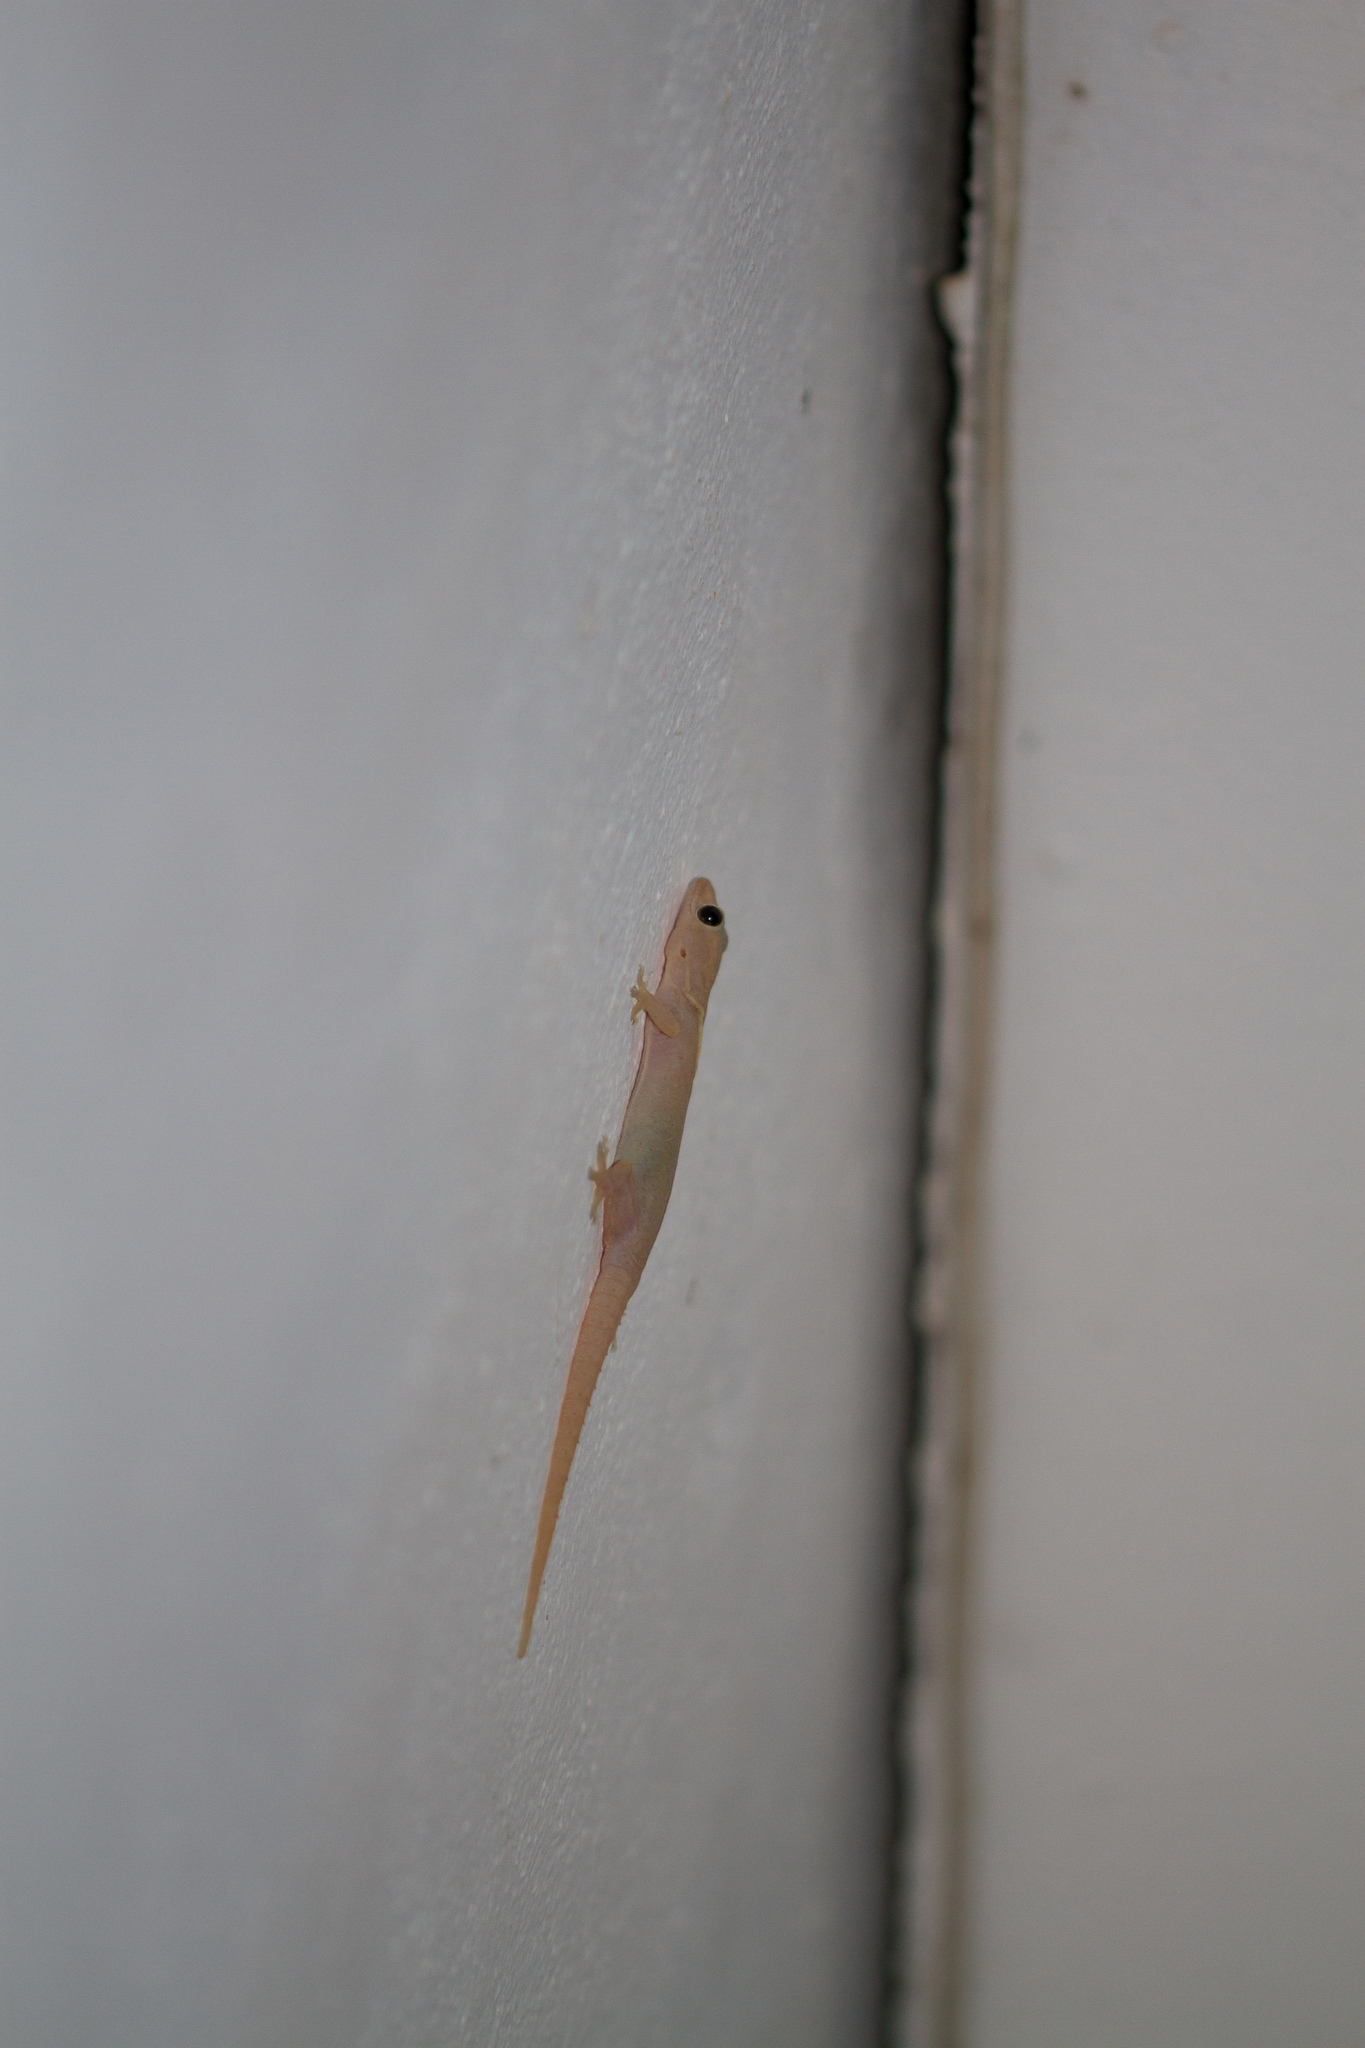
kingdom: Animalia
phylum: Chordata
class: Squamata
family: Gekkonidae
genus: Hemidactylus
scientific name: Hemidactylus frenatus
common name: Common house gecko
